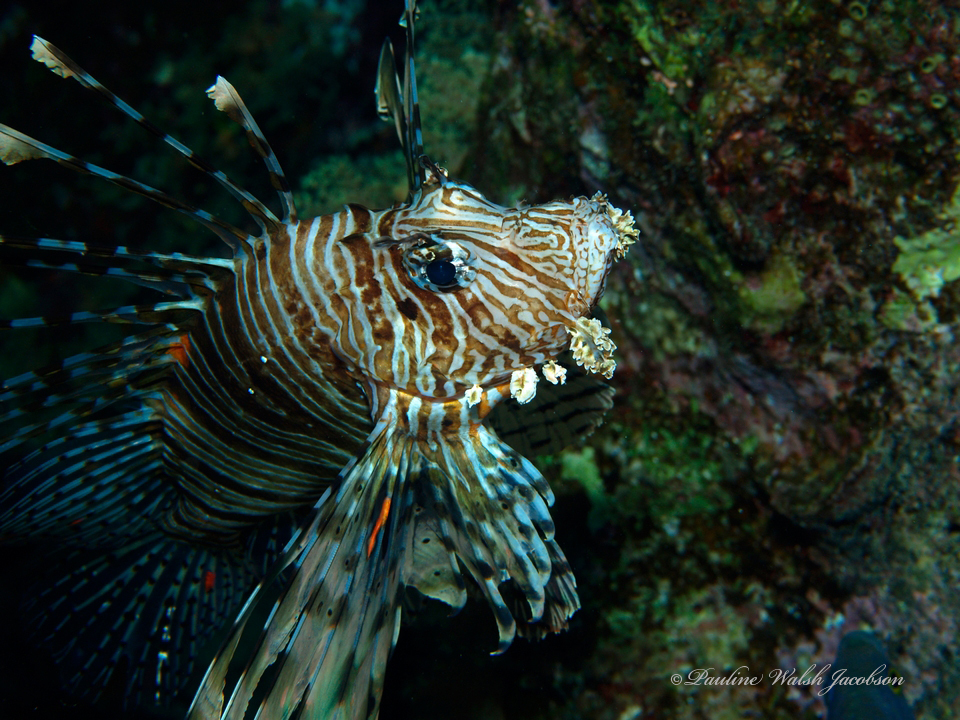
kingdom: Animalia
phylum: Chordata
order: Scorpaeniformes
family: Scorpaenidae
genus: Pterois
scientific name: Pterois miles
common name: Devil firefish
